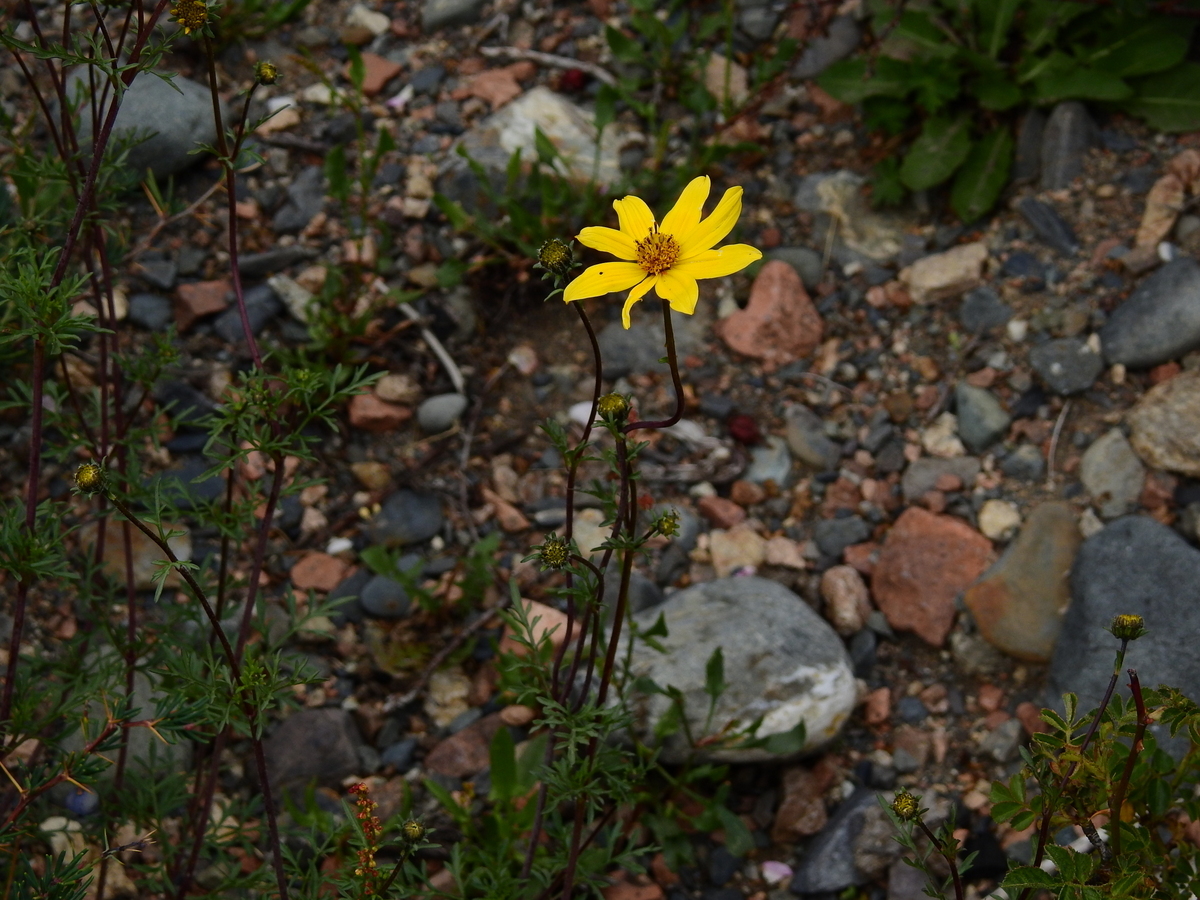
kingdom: Plantae
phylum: Tracheophyta
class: Magnoliopsida
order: Asterales
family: Asteraceae
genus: Bidens
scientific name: Bidens triplinervia
